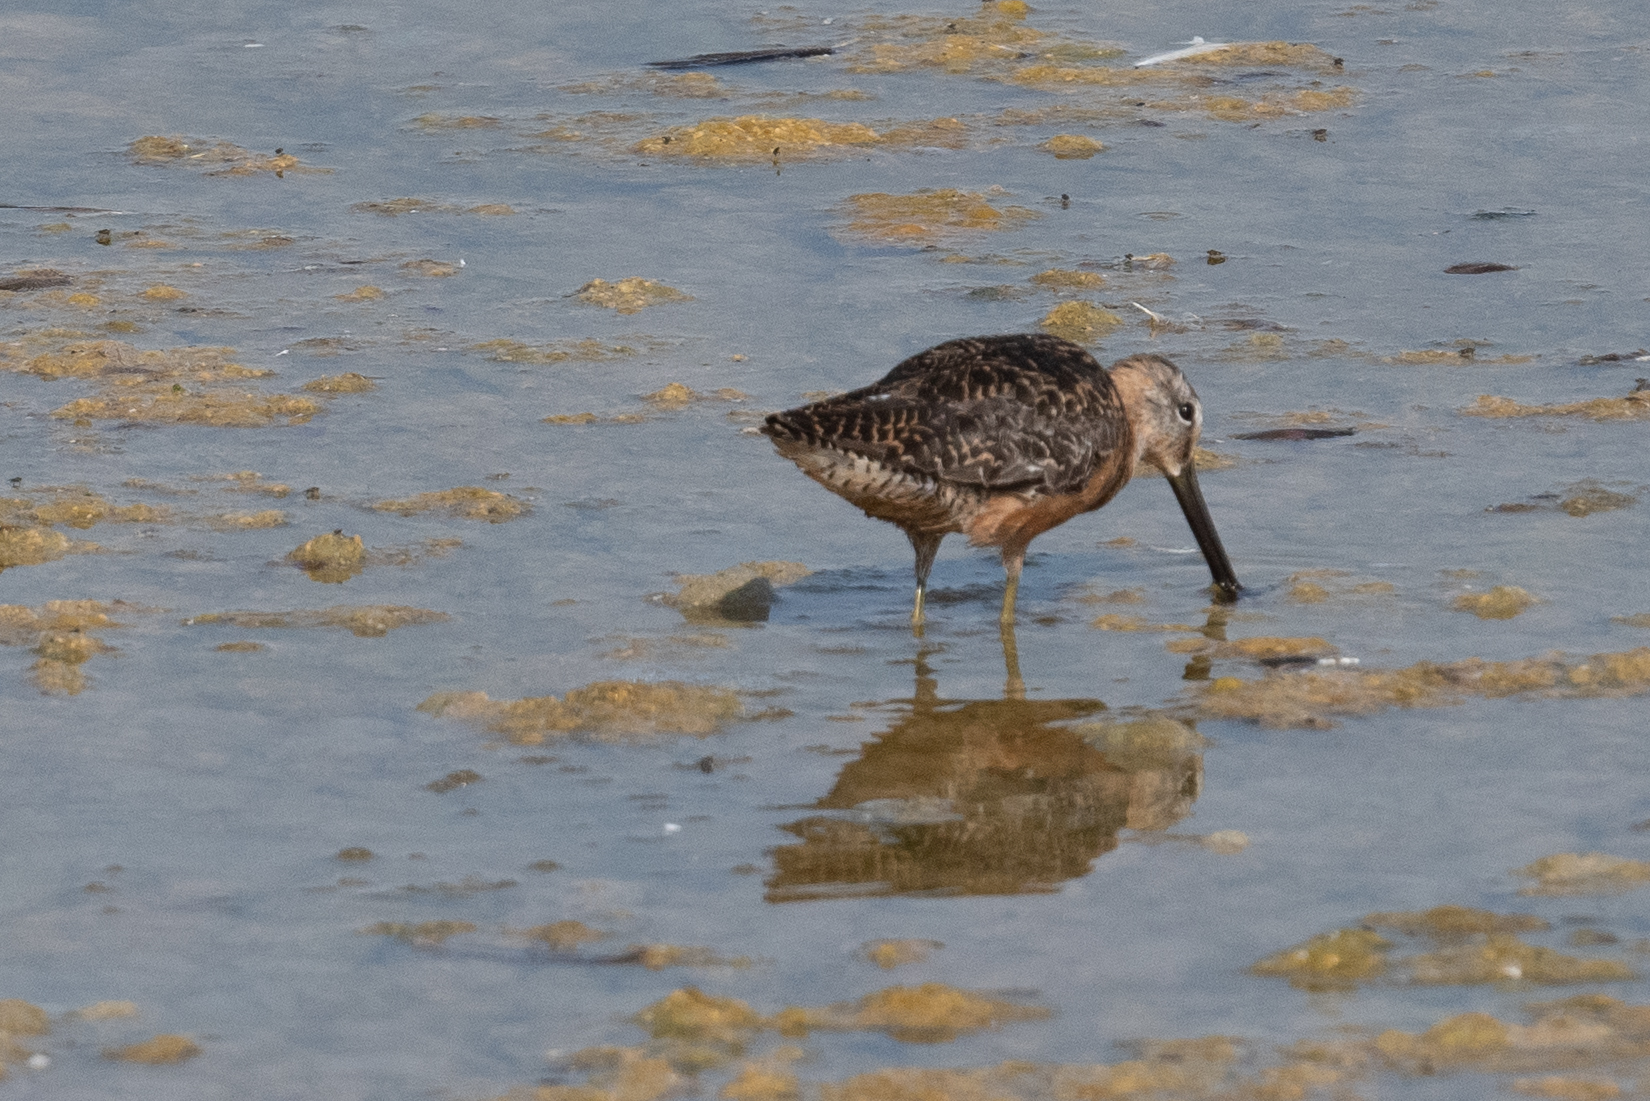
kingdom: Animalia
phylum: Chordata
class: Aves
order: Charadriiformes
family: Scolopacidae
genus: Limnodromus
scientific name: Limnodromus scolopaceus
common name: Long-billed dowitcher
